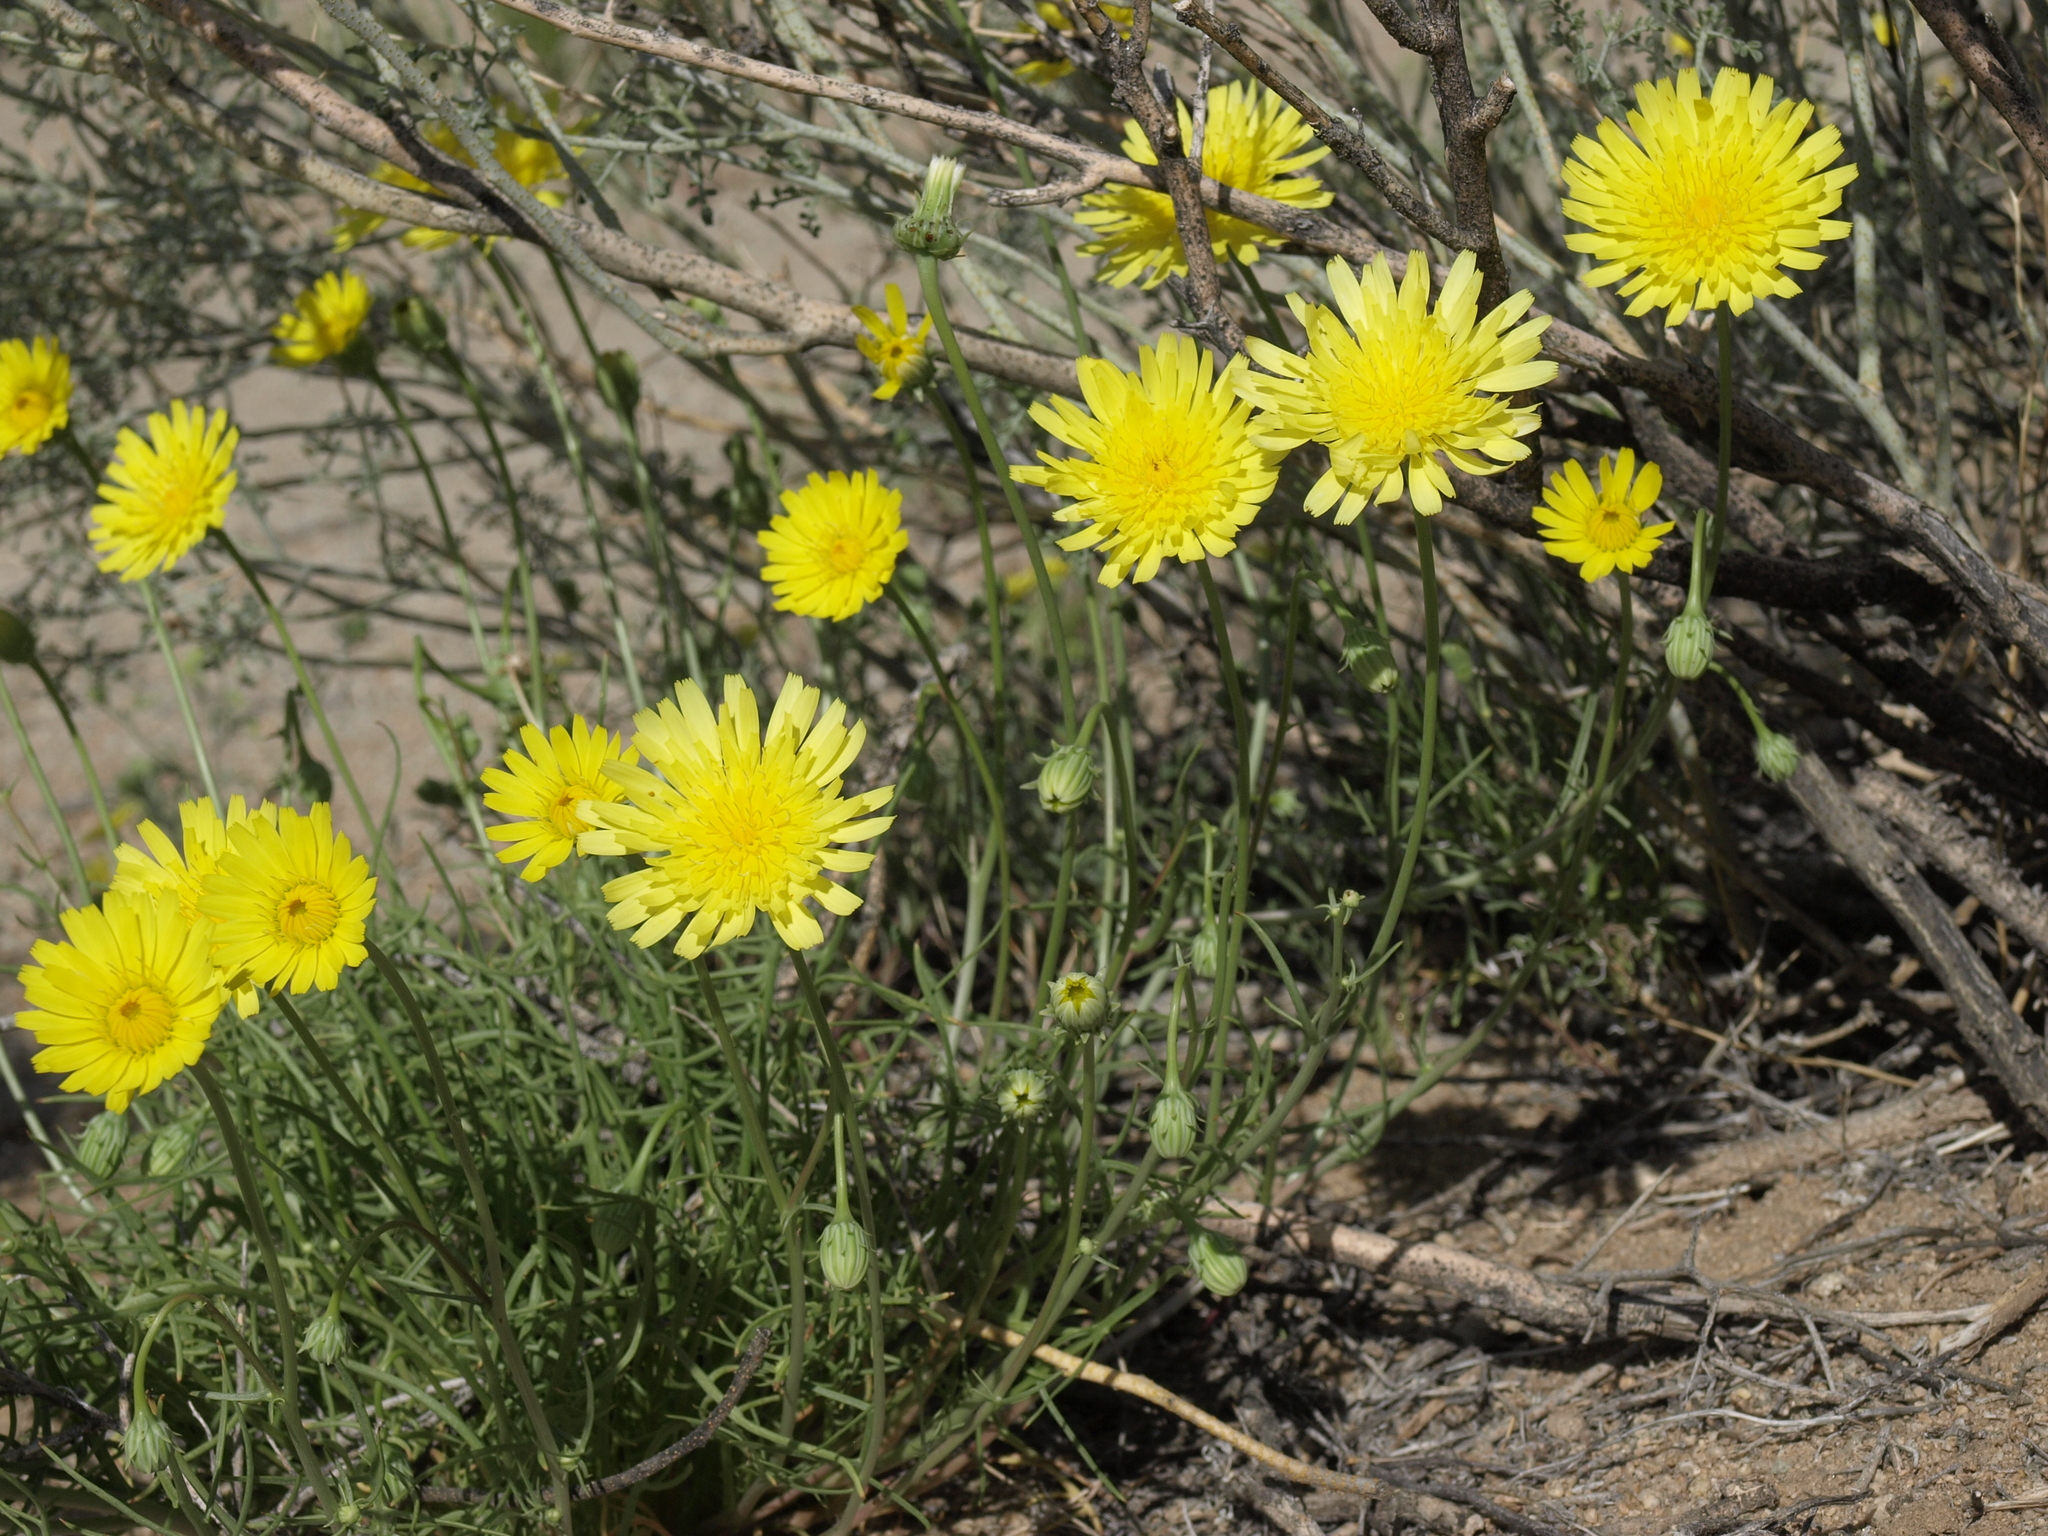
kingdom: Plantae
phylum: Tracheophyta
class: Magnoliopsida
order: Asterales
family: Asteraceae
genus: Malacothrix
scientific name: Malacothrix glabrata
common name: Smooth desert-dandelion
